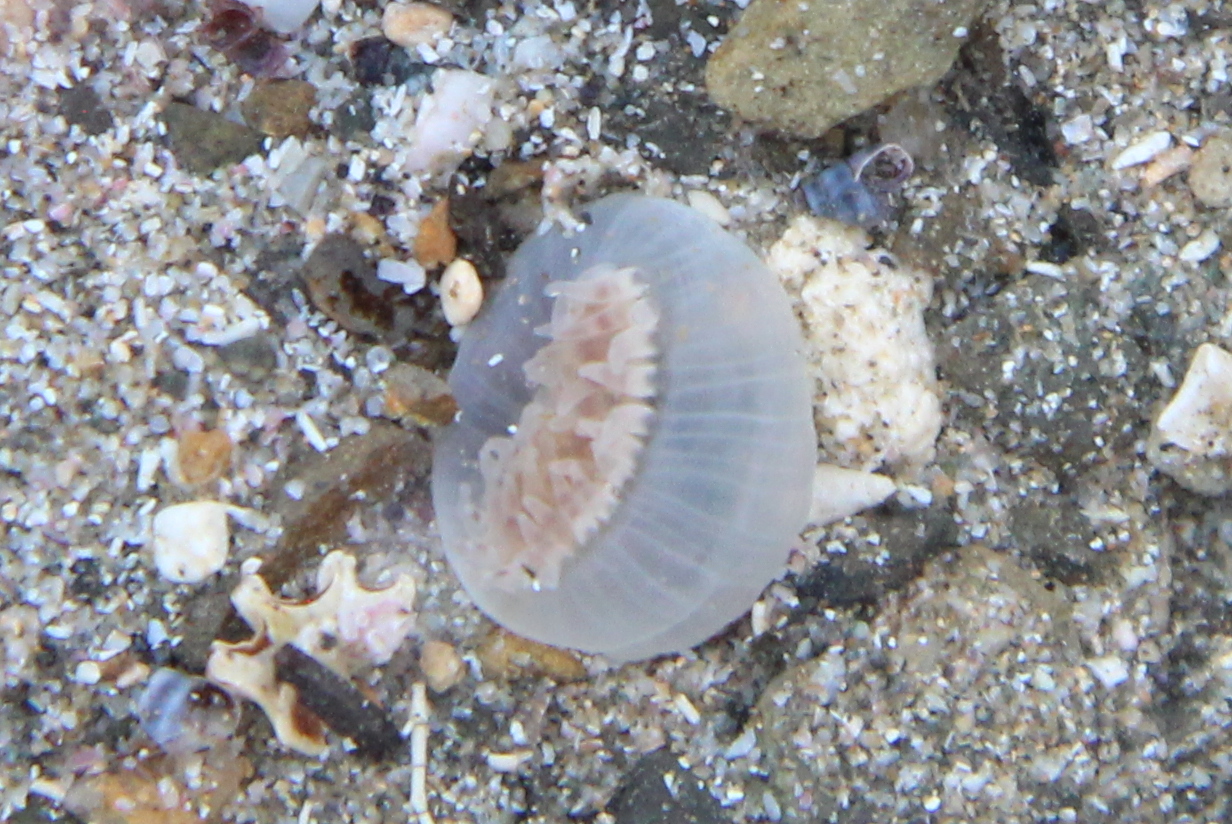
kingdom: Animalia
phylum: Cnidaria
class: Anthozoa
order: Actiniaria
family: Isanthidae
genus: Isoparactis
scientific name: Isoparactis ferax
